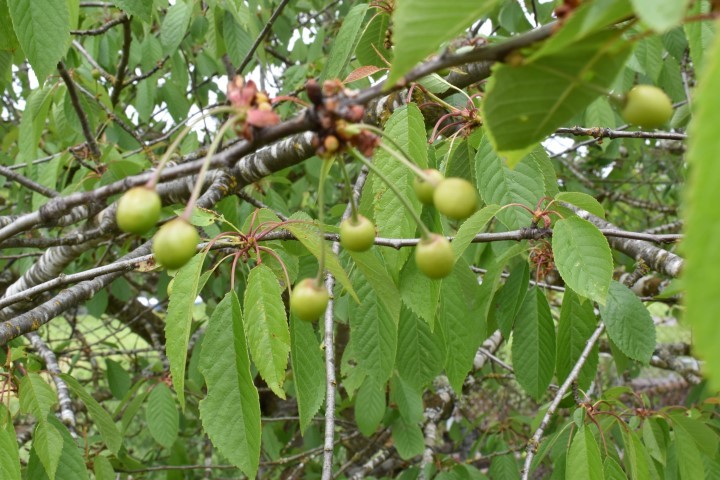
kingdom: Plantae
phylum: Tracheophyta
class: Magnoliopsida
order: Rosales
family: Rosaceae
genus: Prunus
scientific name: Prunus avium
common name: Sweet cherry
